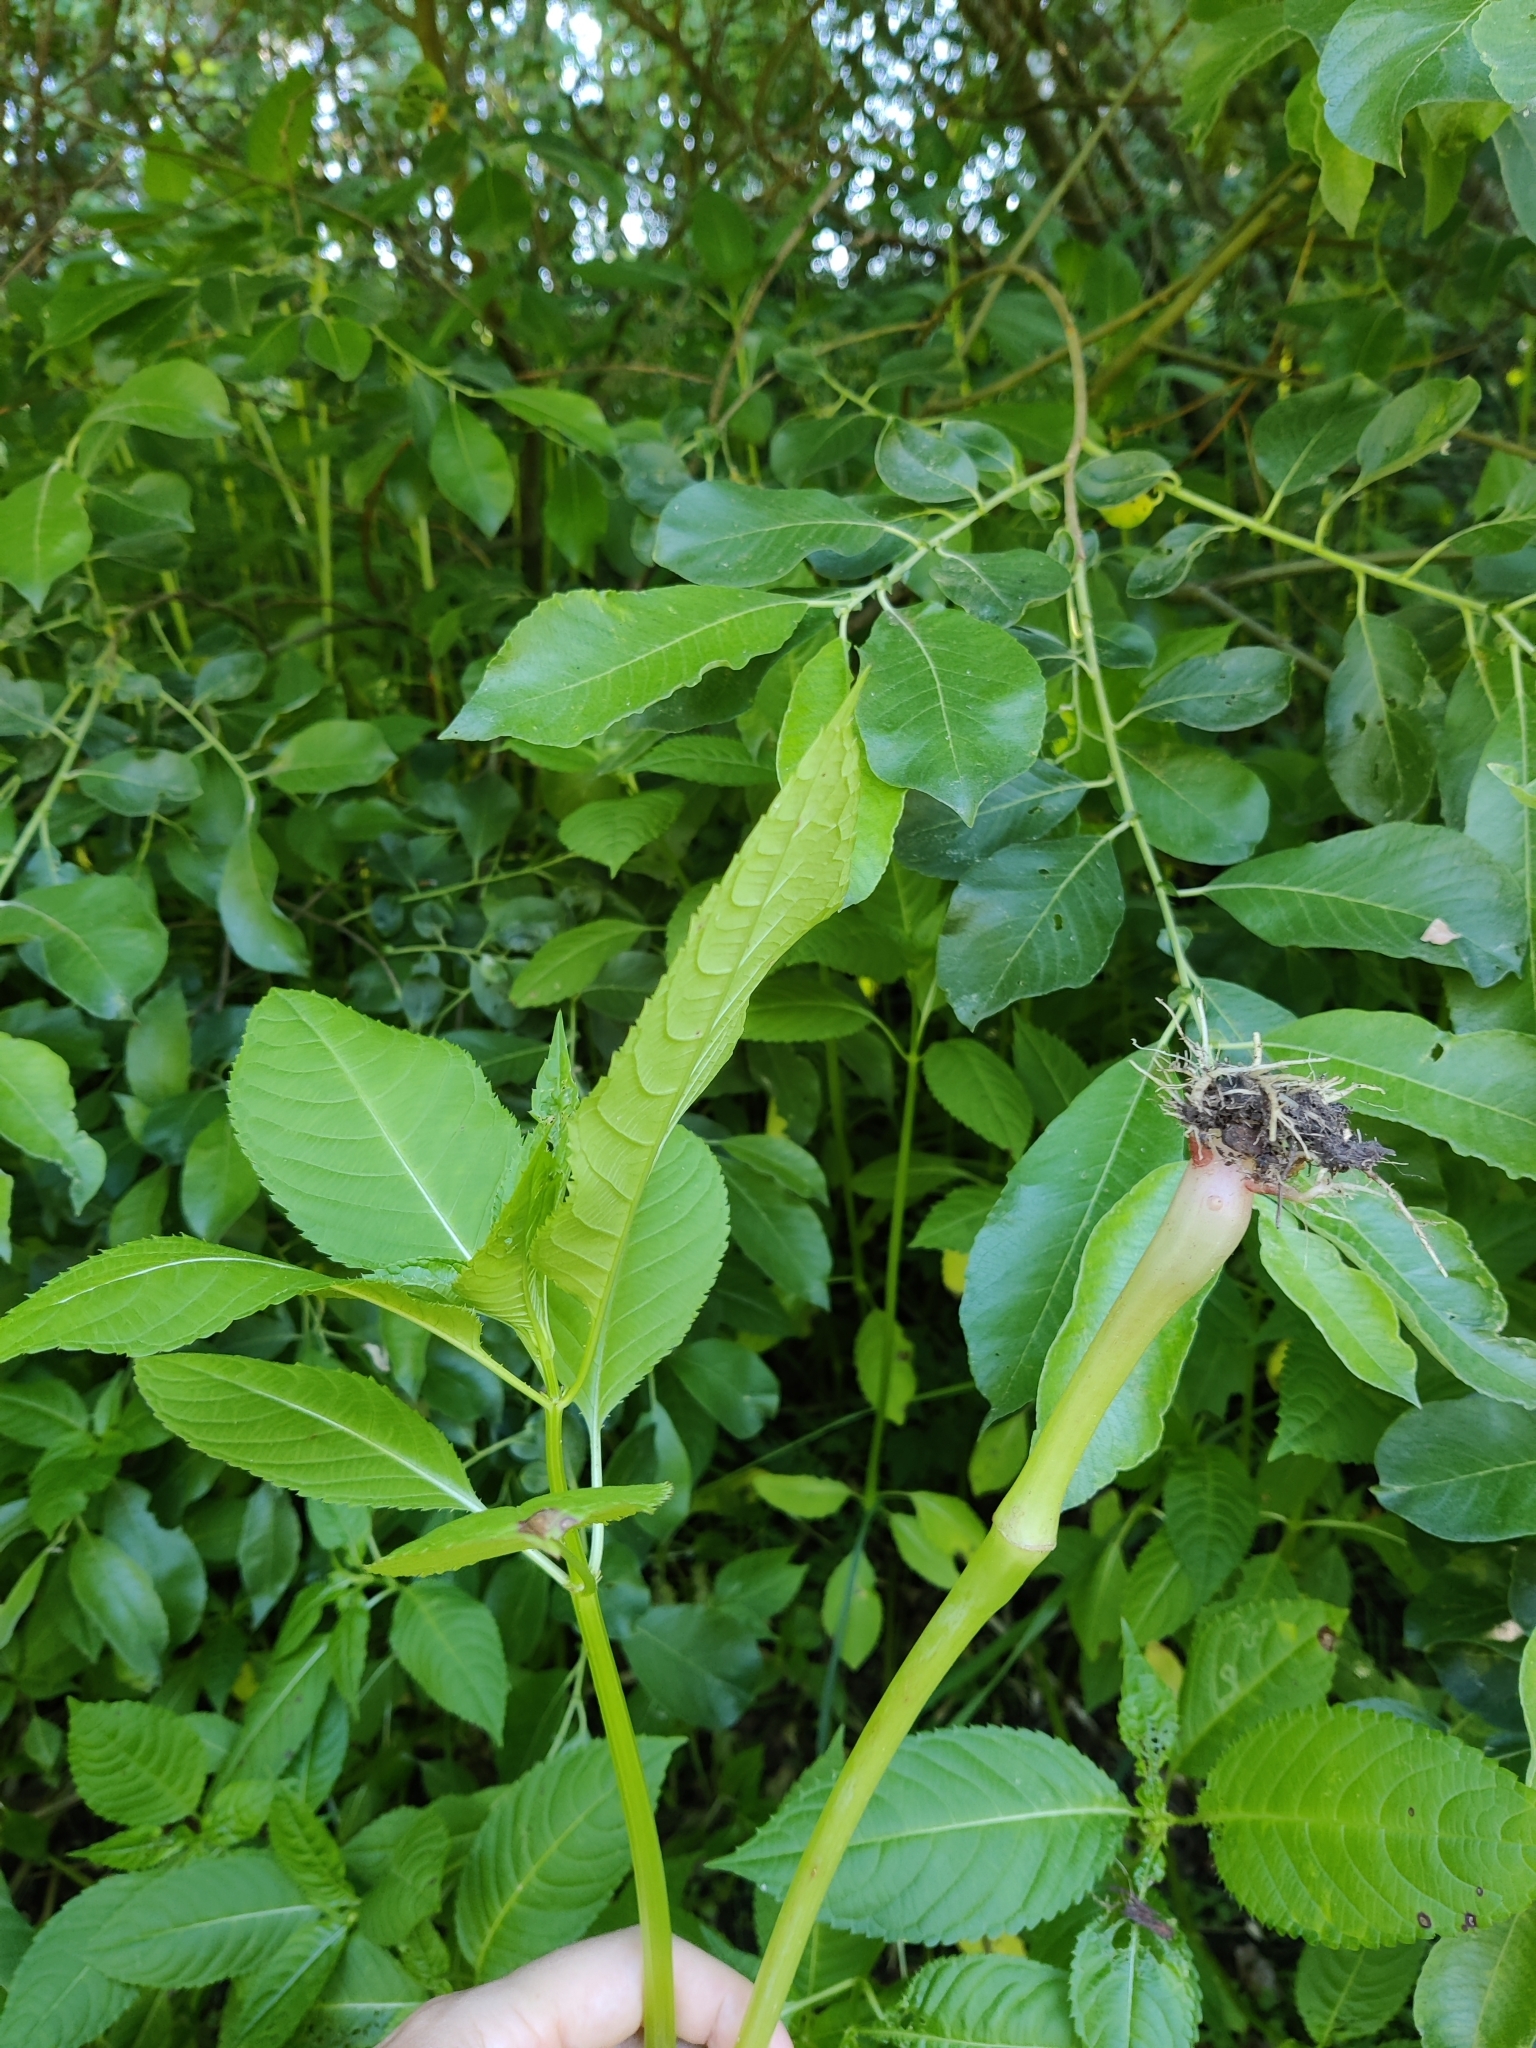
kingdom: Plantae
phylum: Tracheophyta
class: Magnoliopsida
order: Ericales
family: Balsaminaceae
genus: Impatiens
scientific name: Impatiens glandulifera
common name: Himalayan balsam
